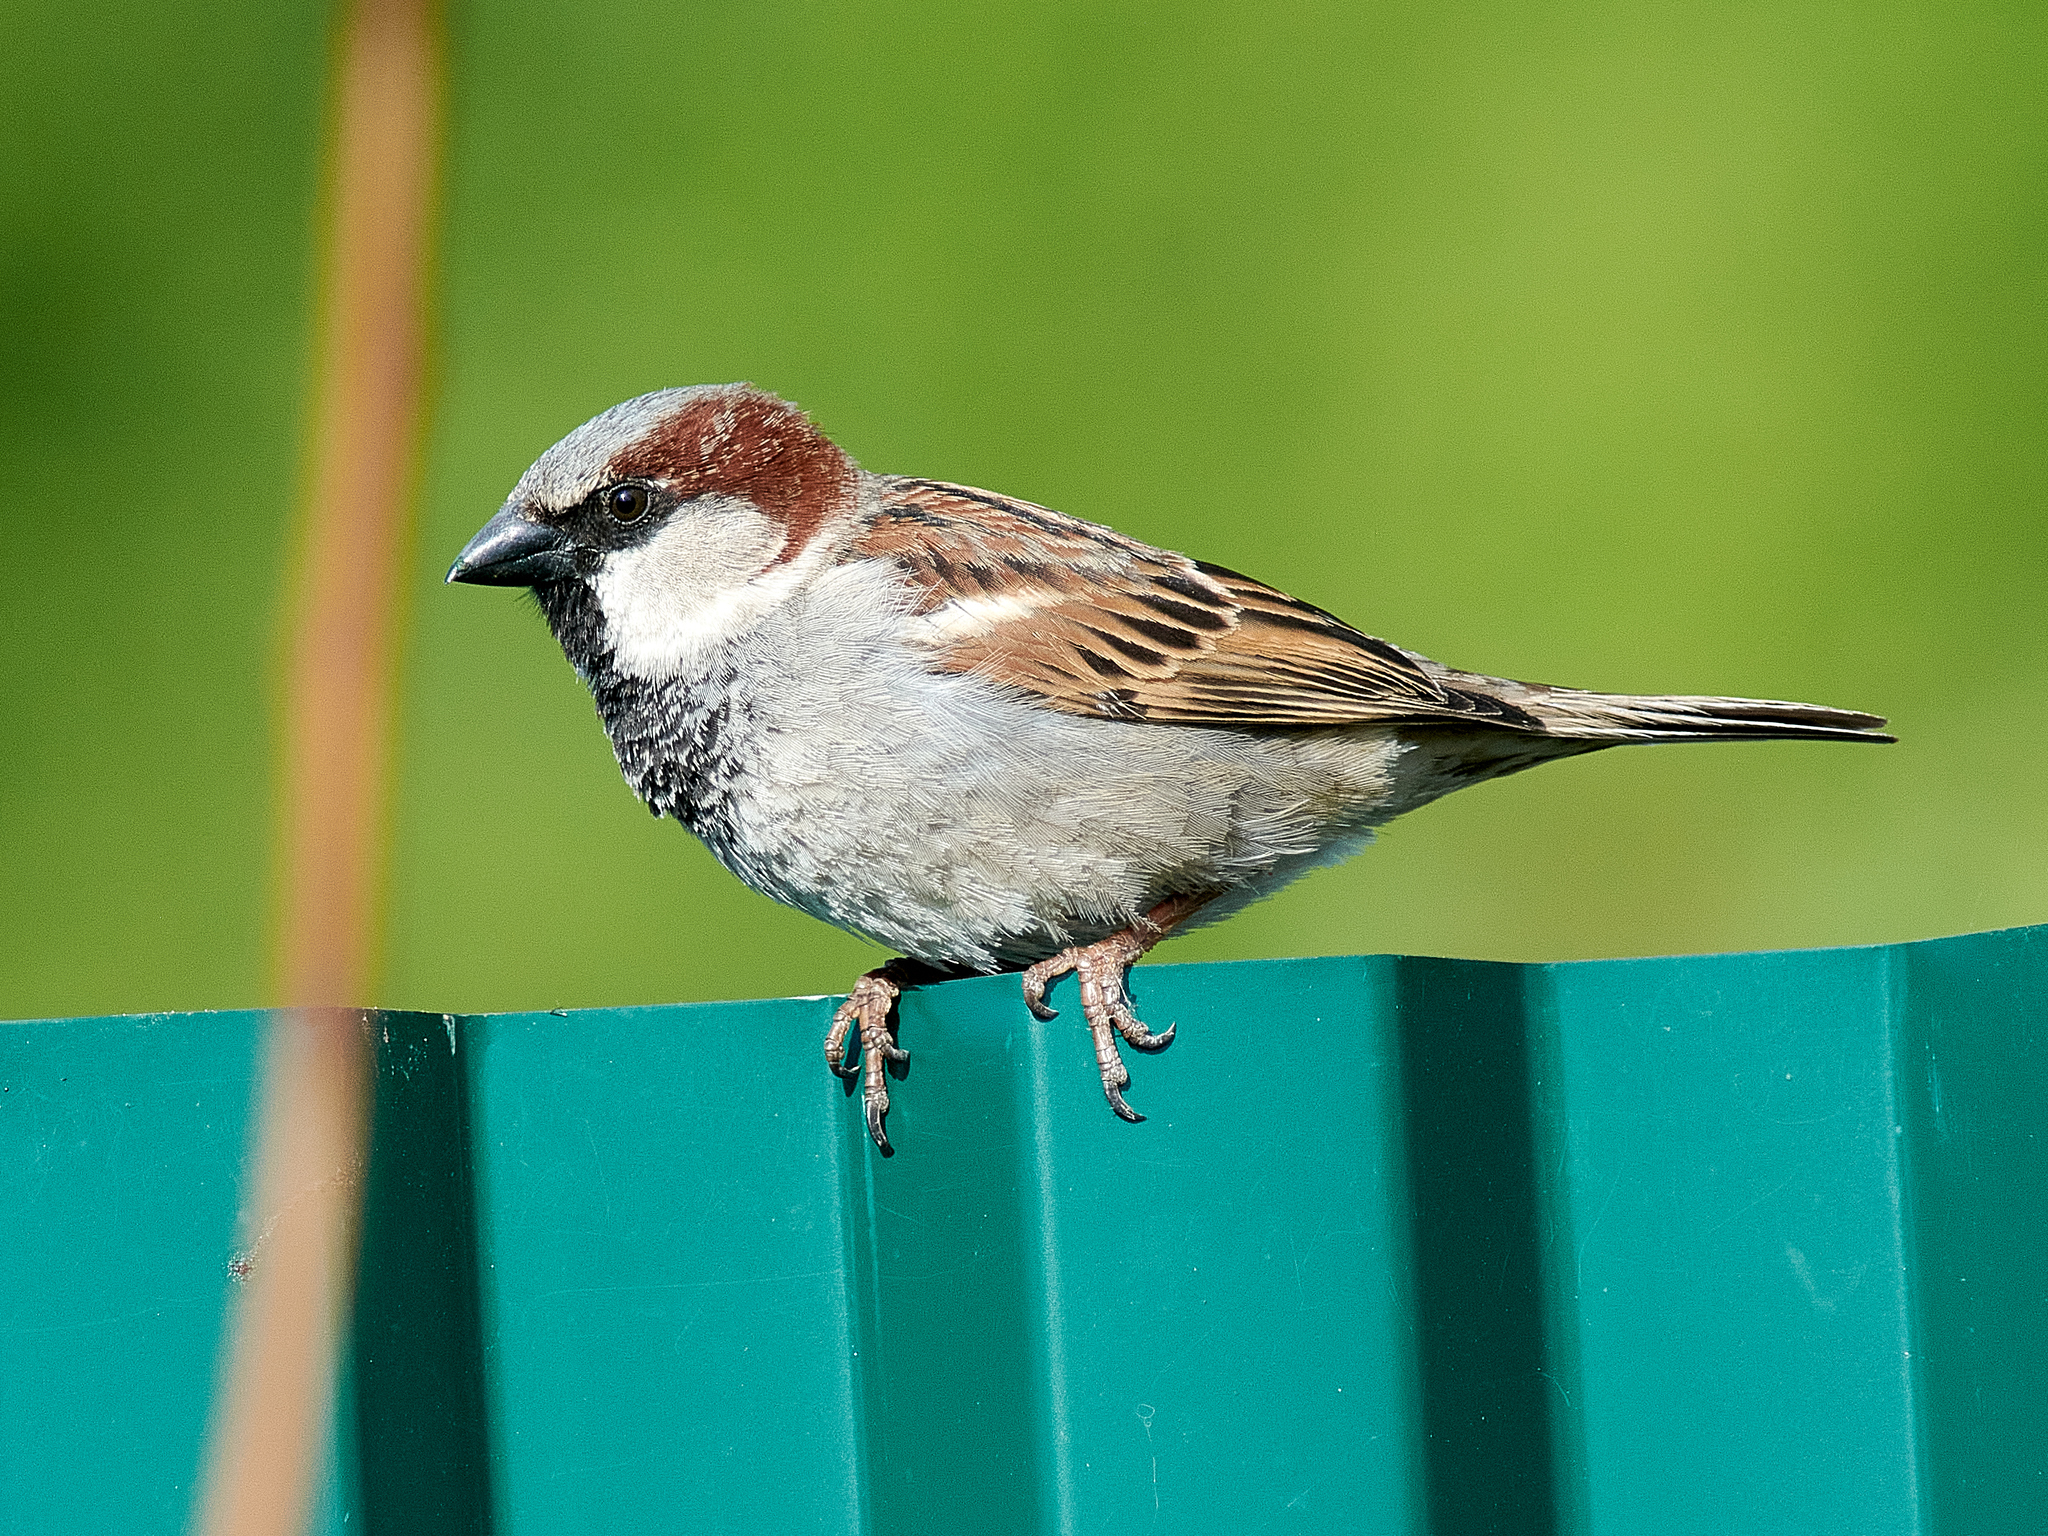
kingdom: Animalia
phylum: Chordata
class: Aves
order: Passeriformes
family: Passeridae
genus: Passer
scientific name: Passer domesticus
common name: House sparrow
